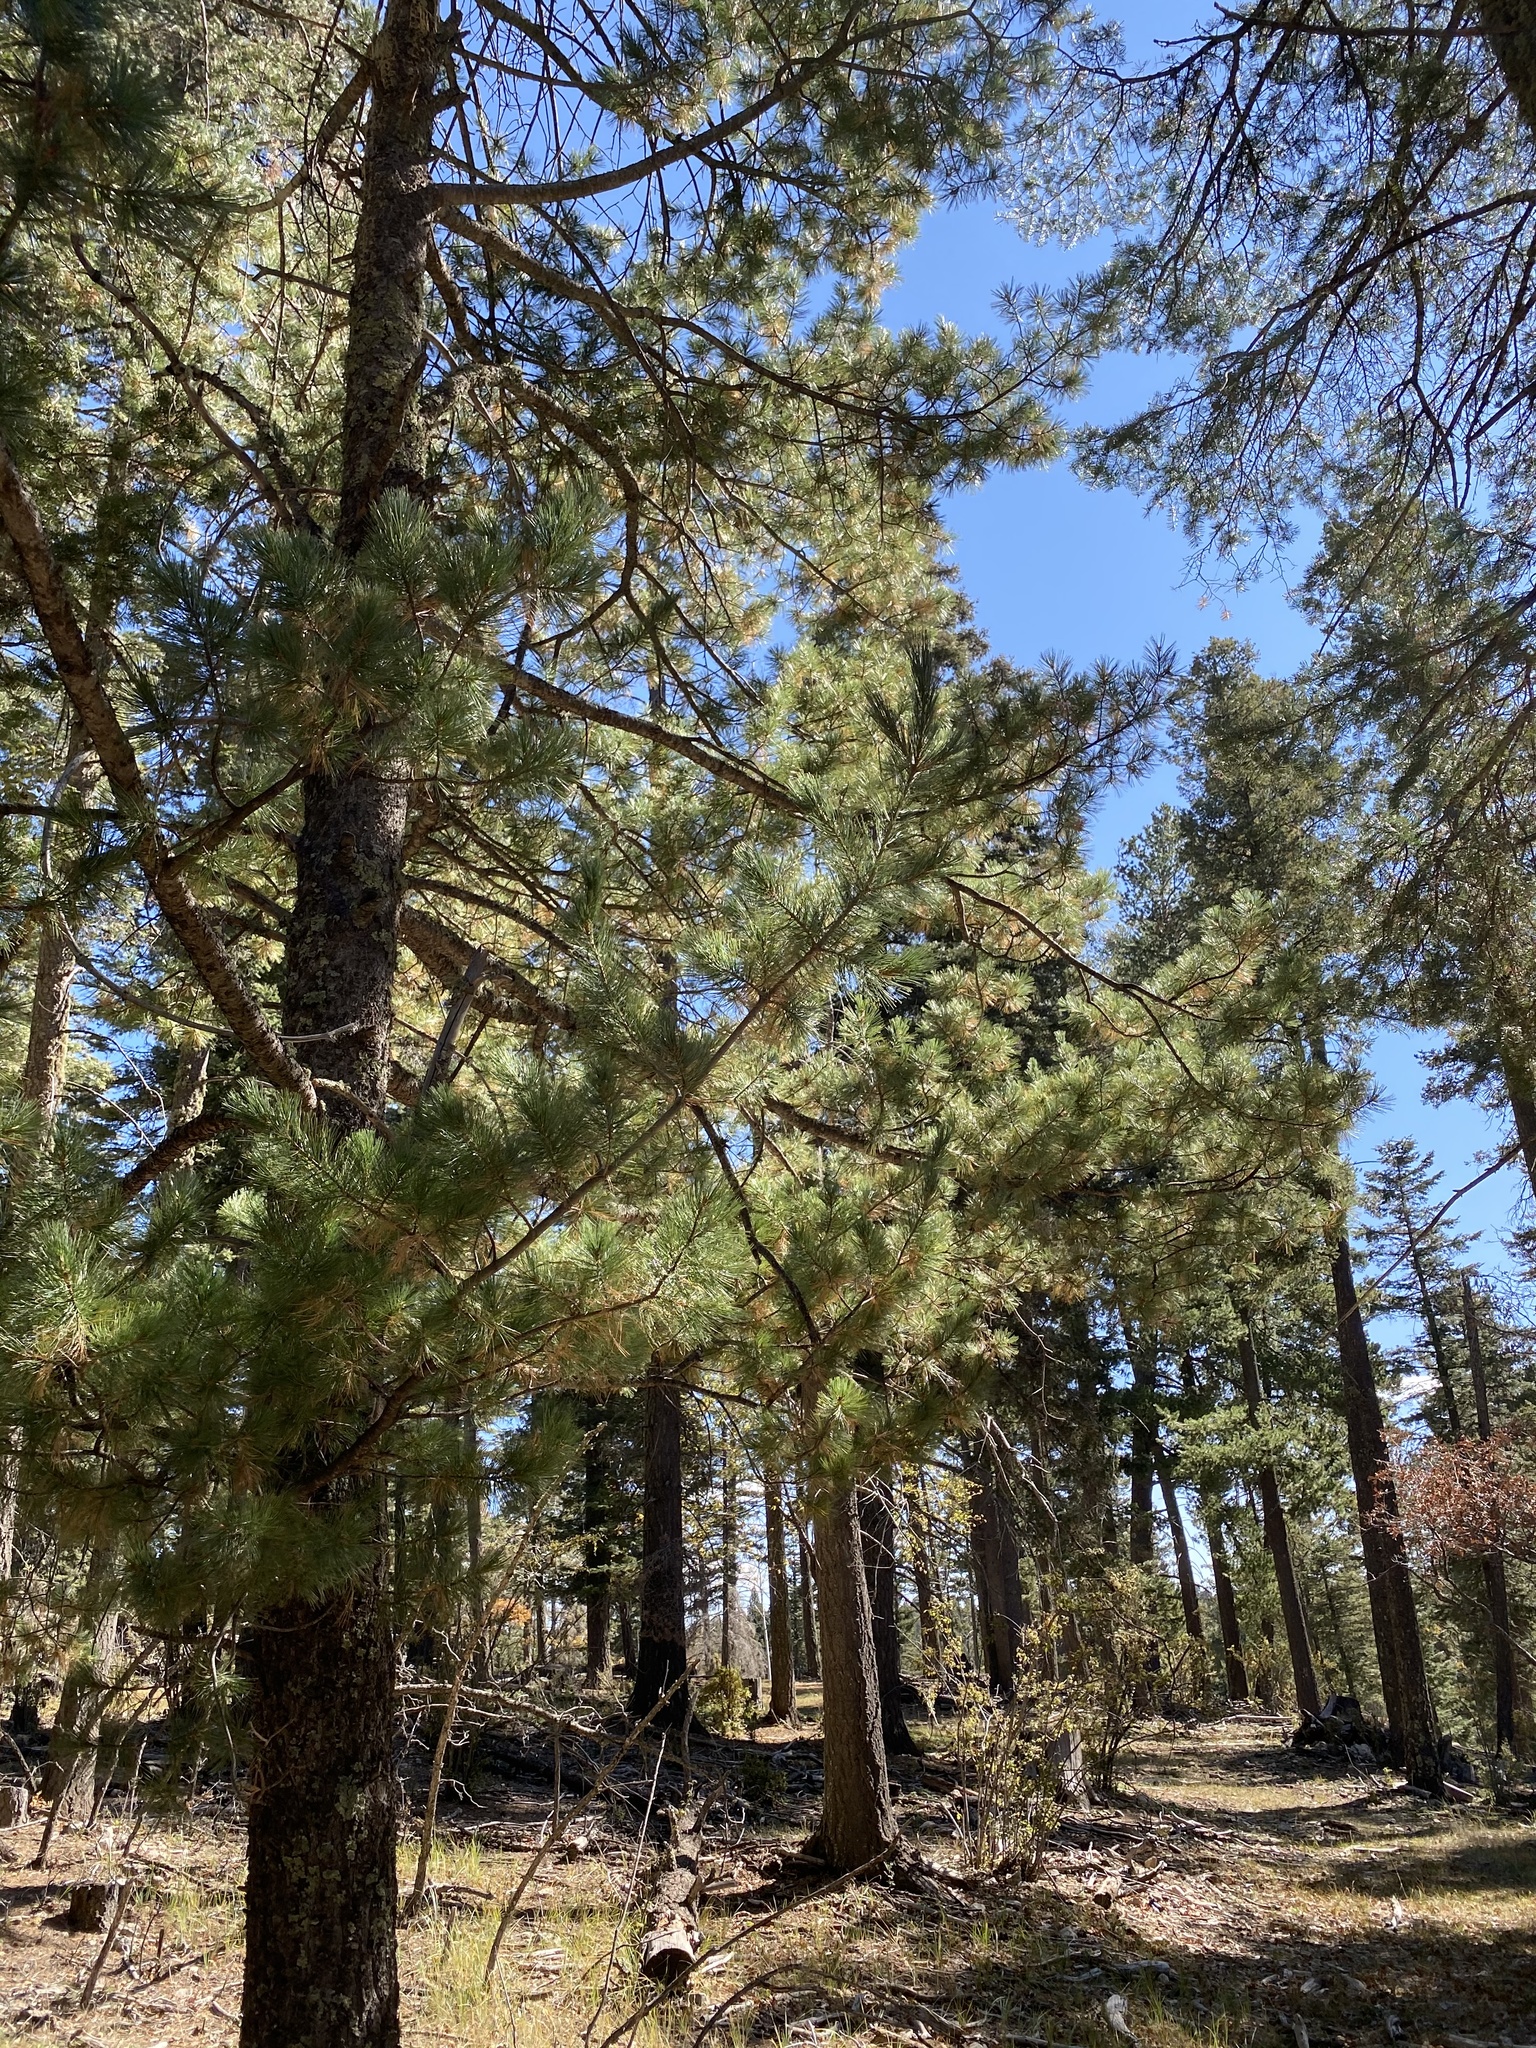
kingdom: Plantae
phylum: Tracheophyta
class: Pinopsida
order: Pinales
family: Pinaceae
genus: Pinus
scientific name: Pinus strobiformis
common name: Southwestern white pine
